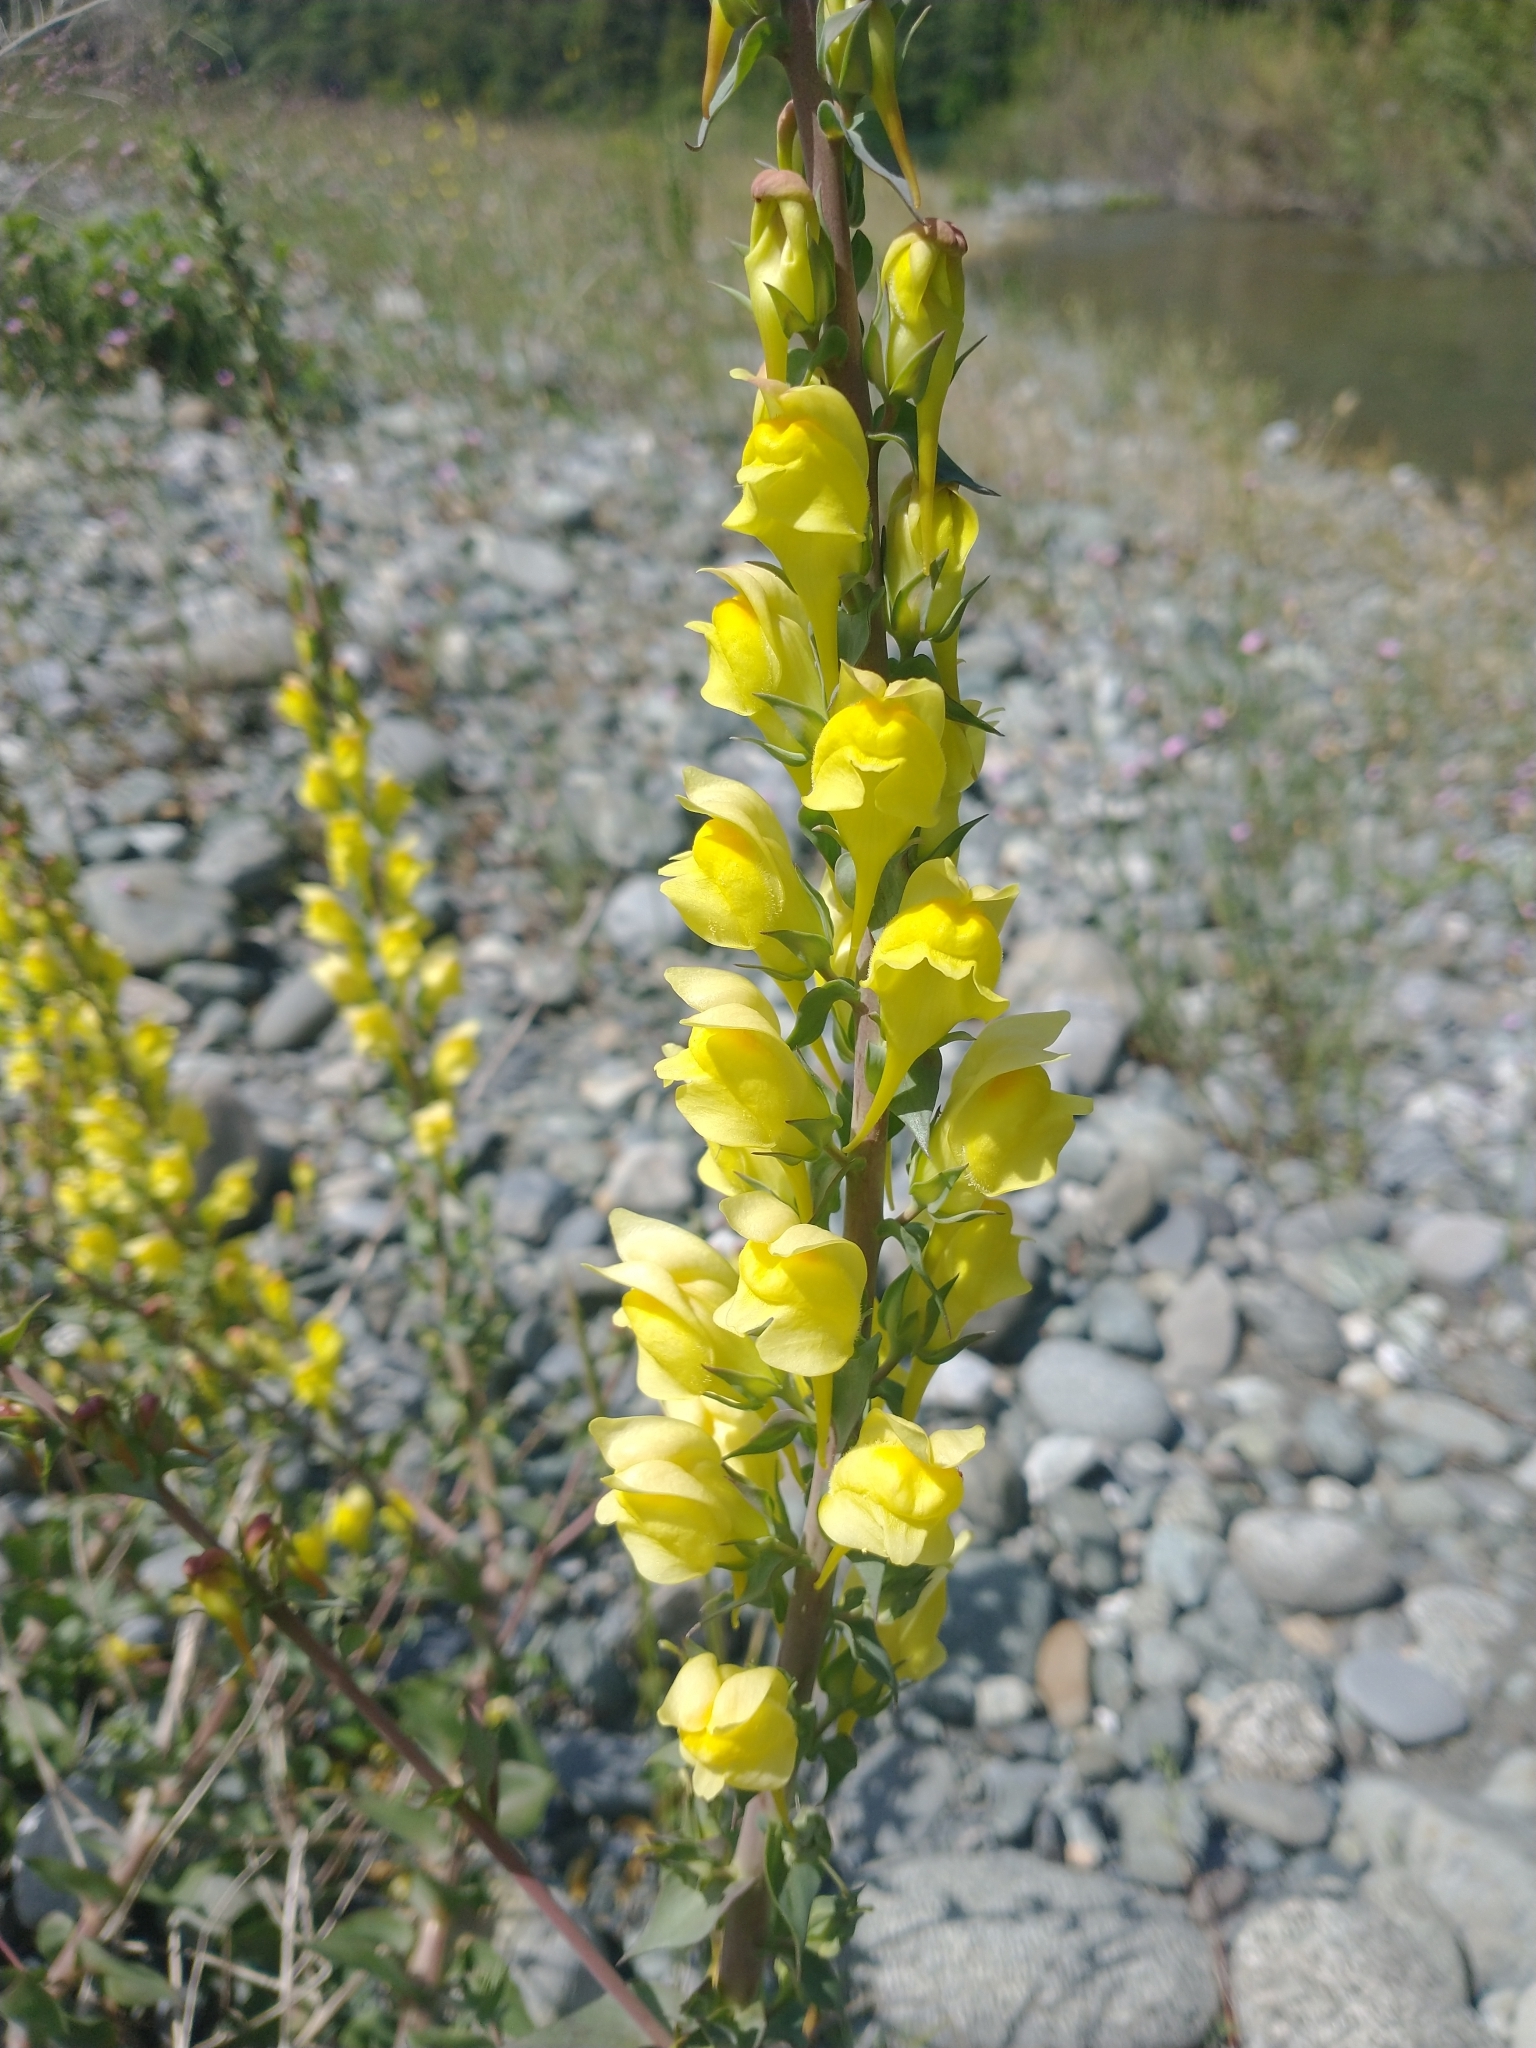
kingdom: Plantae
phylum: Tracheophyta
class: Magnoliopsida
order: Lamiales
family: Plantaginaceae
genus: Linaria
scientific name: Linaria dalmatica
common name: Dalmatian toadflax
